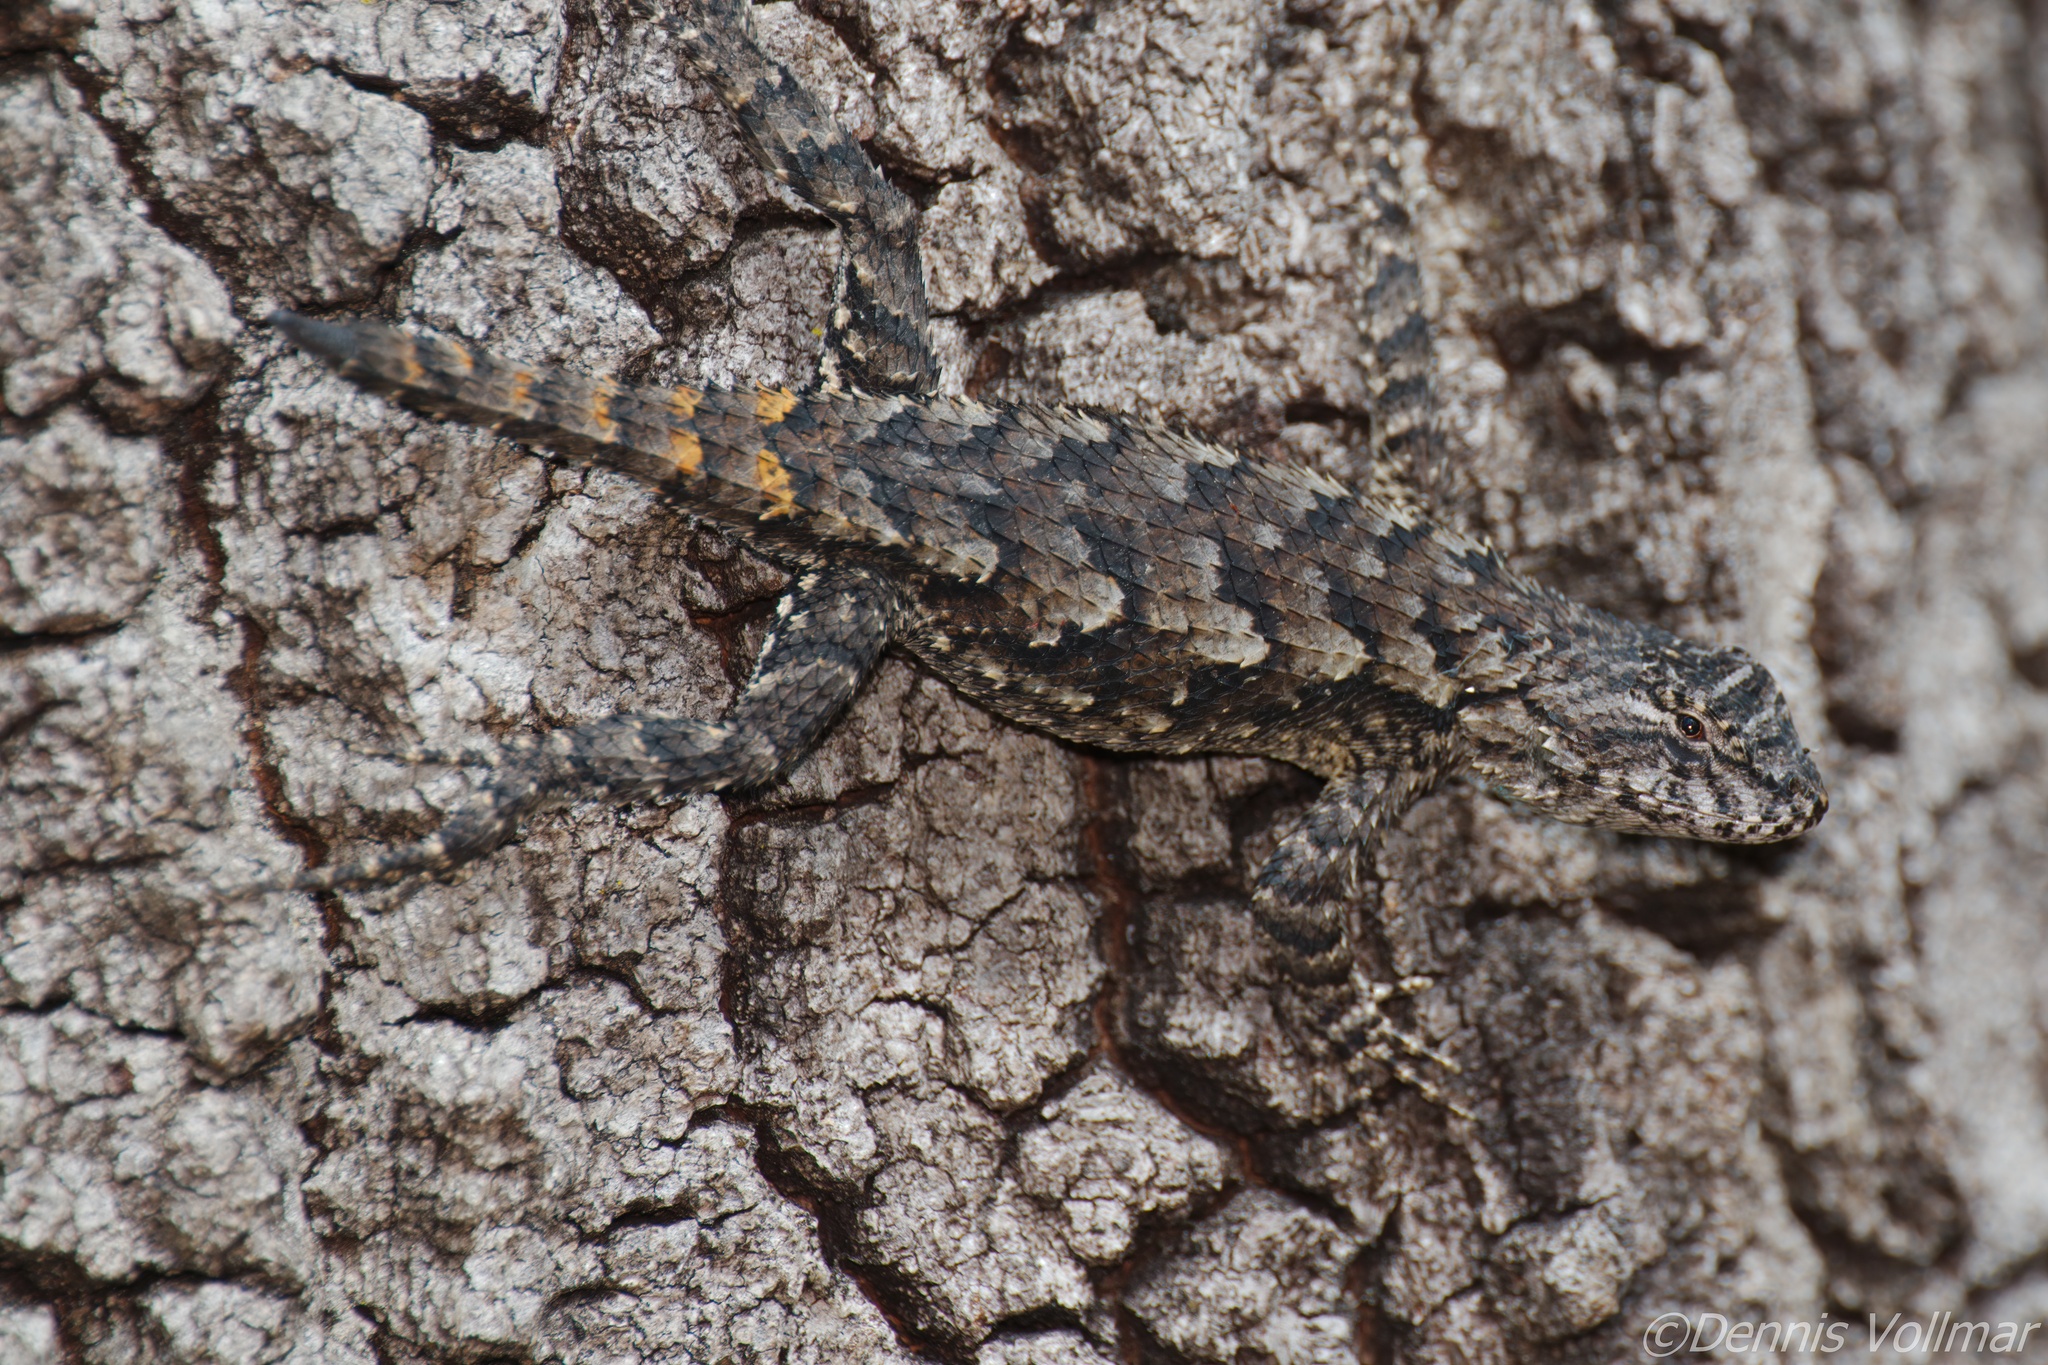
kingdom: Animalia
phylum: Chordata
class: Squamata
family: Phrynosomatidae
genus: Sceloporus
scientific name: Sceloporus undulatus
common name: Eastern fence lizard
